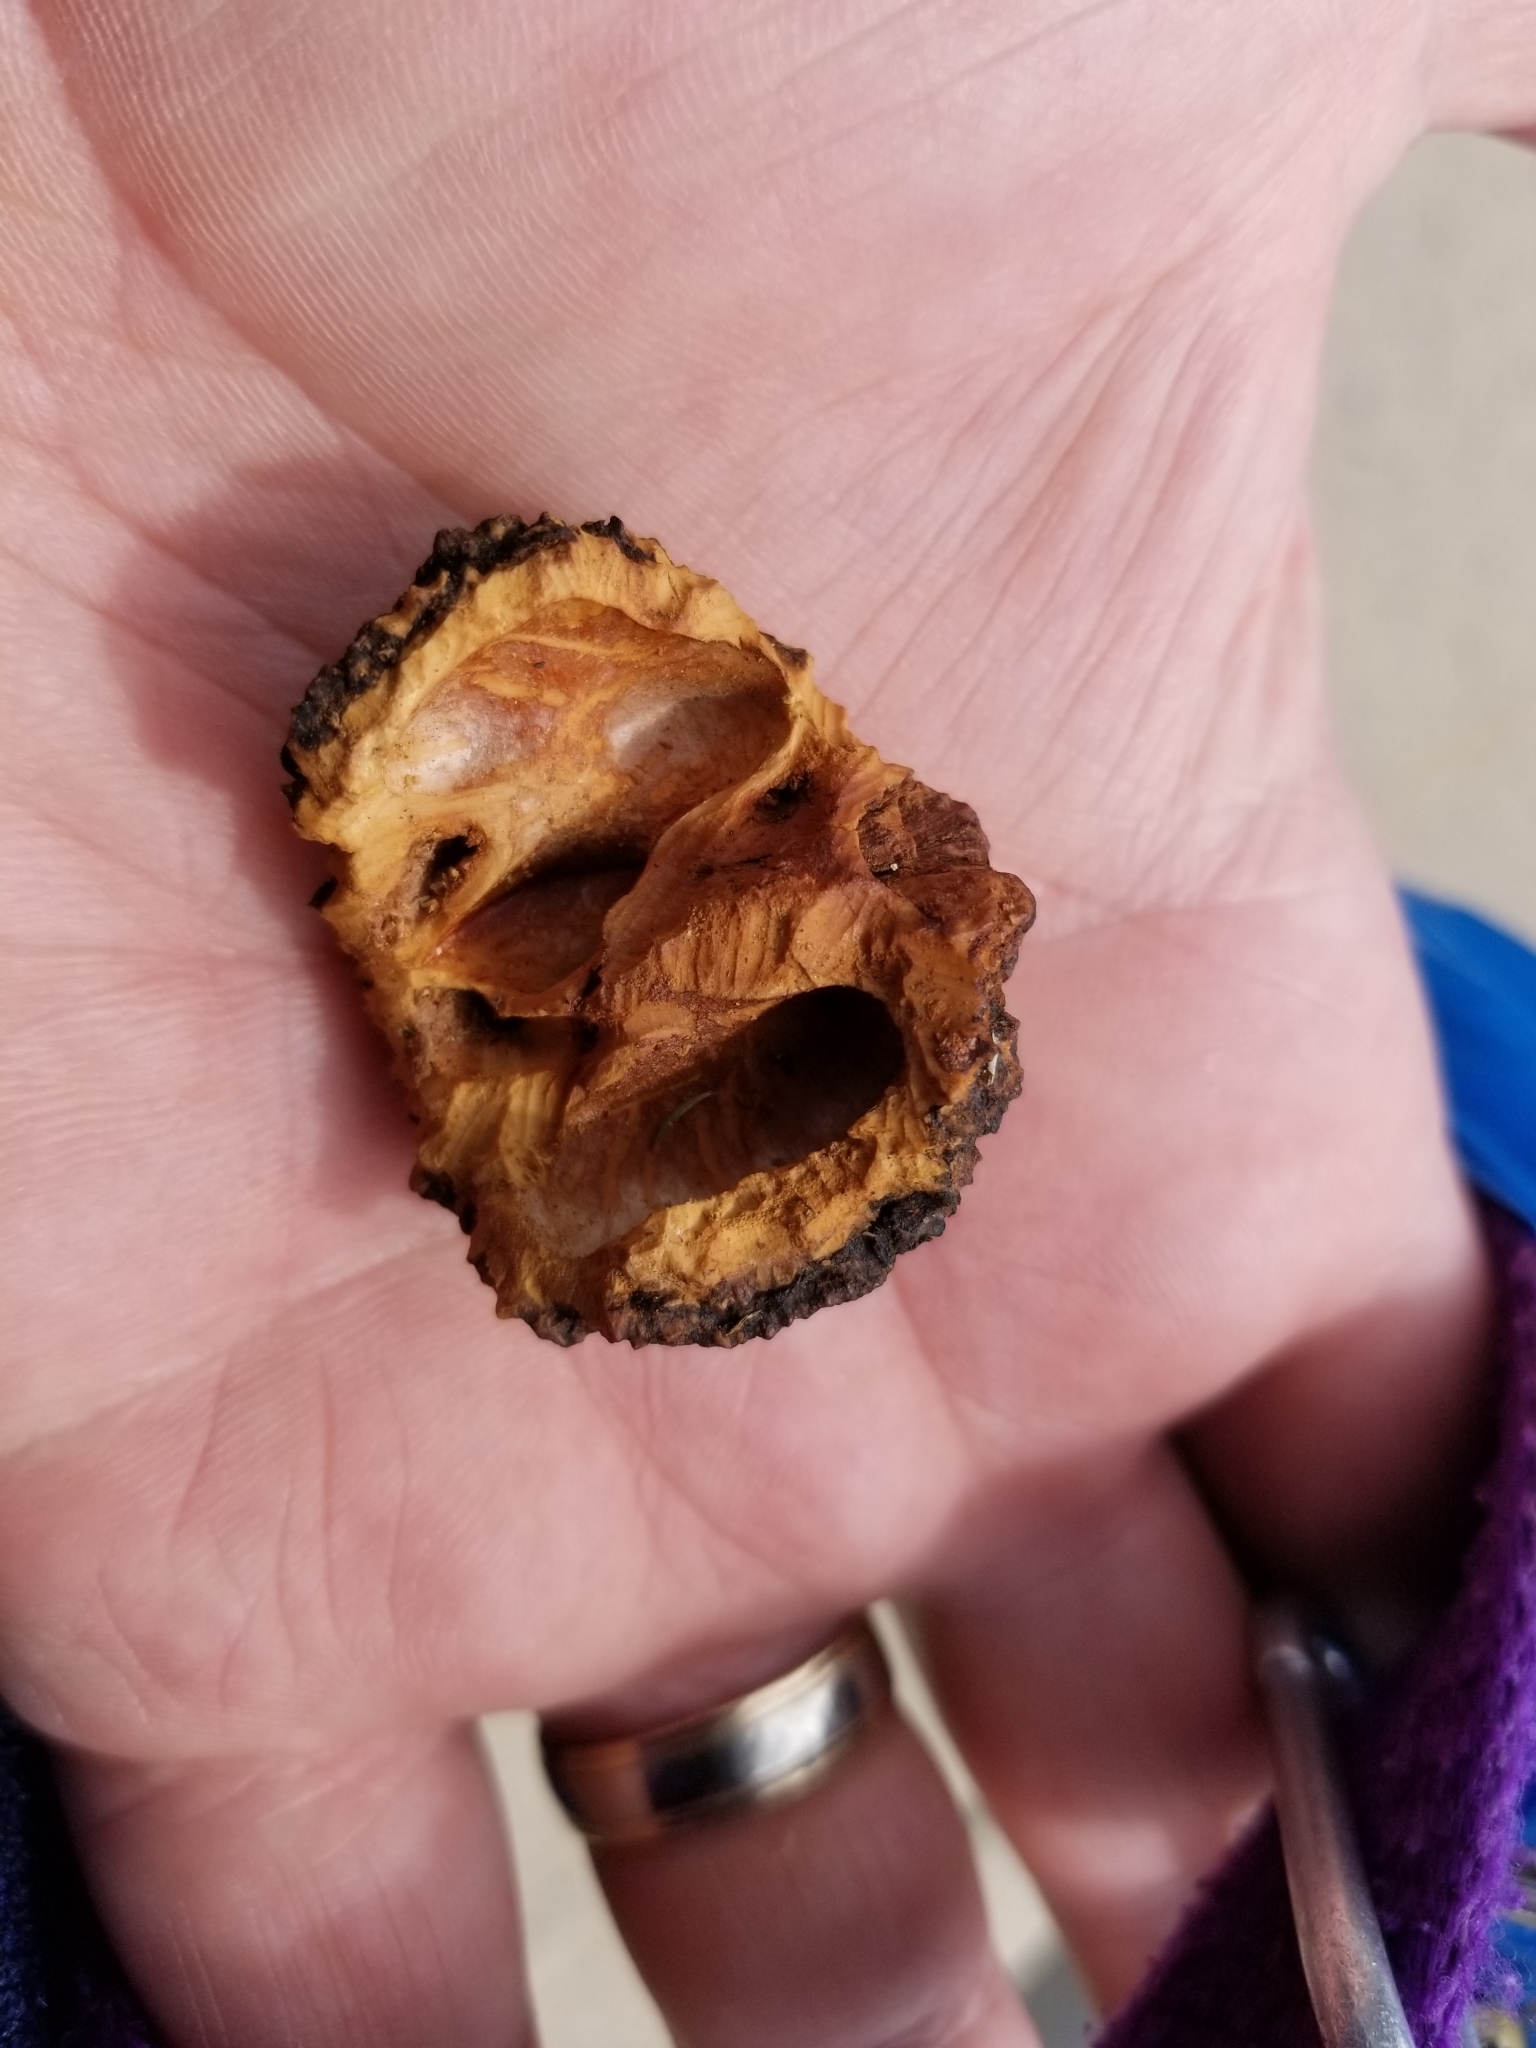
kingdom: Plantae
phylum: Tracheophyta
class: Magnoliopsida
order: Fagales
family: Juglandaceae
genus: Juglans
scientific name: Juglans nigra
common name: Black walnut
